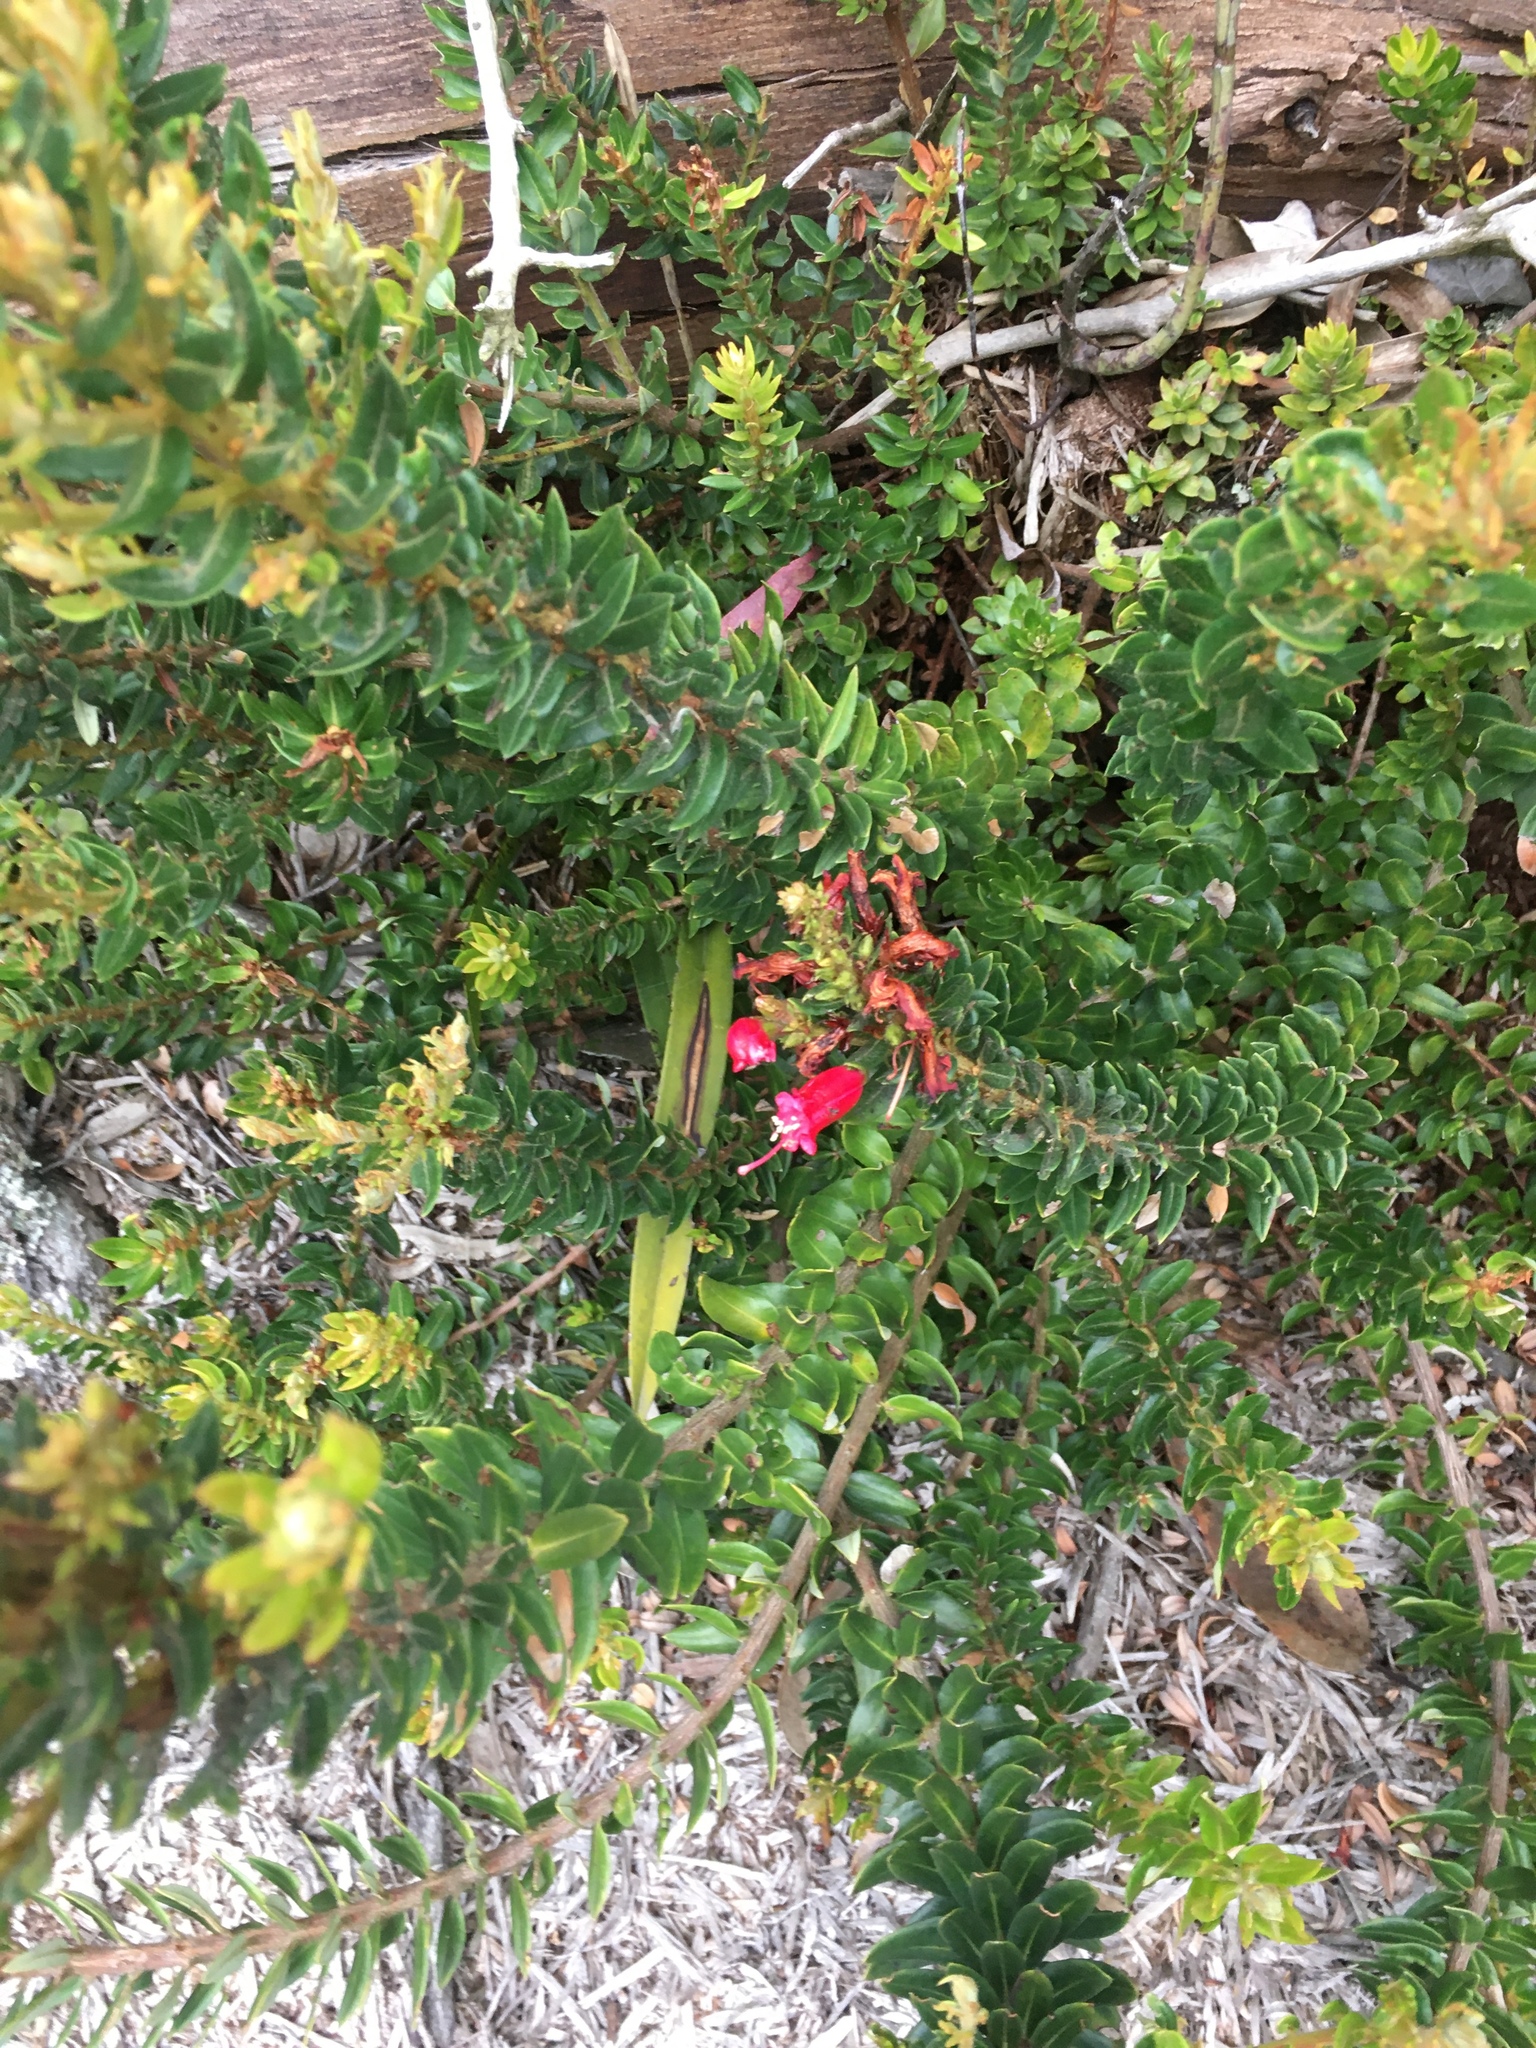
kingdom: Plantae
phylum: Tracheophyta
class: Magnoliopsida
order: Ericales
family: Ericaceae
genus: Bejaria
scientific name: Bejaria resinosa
